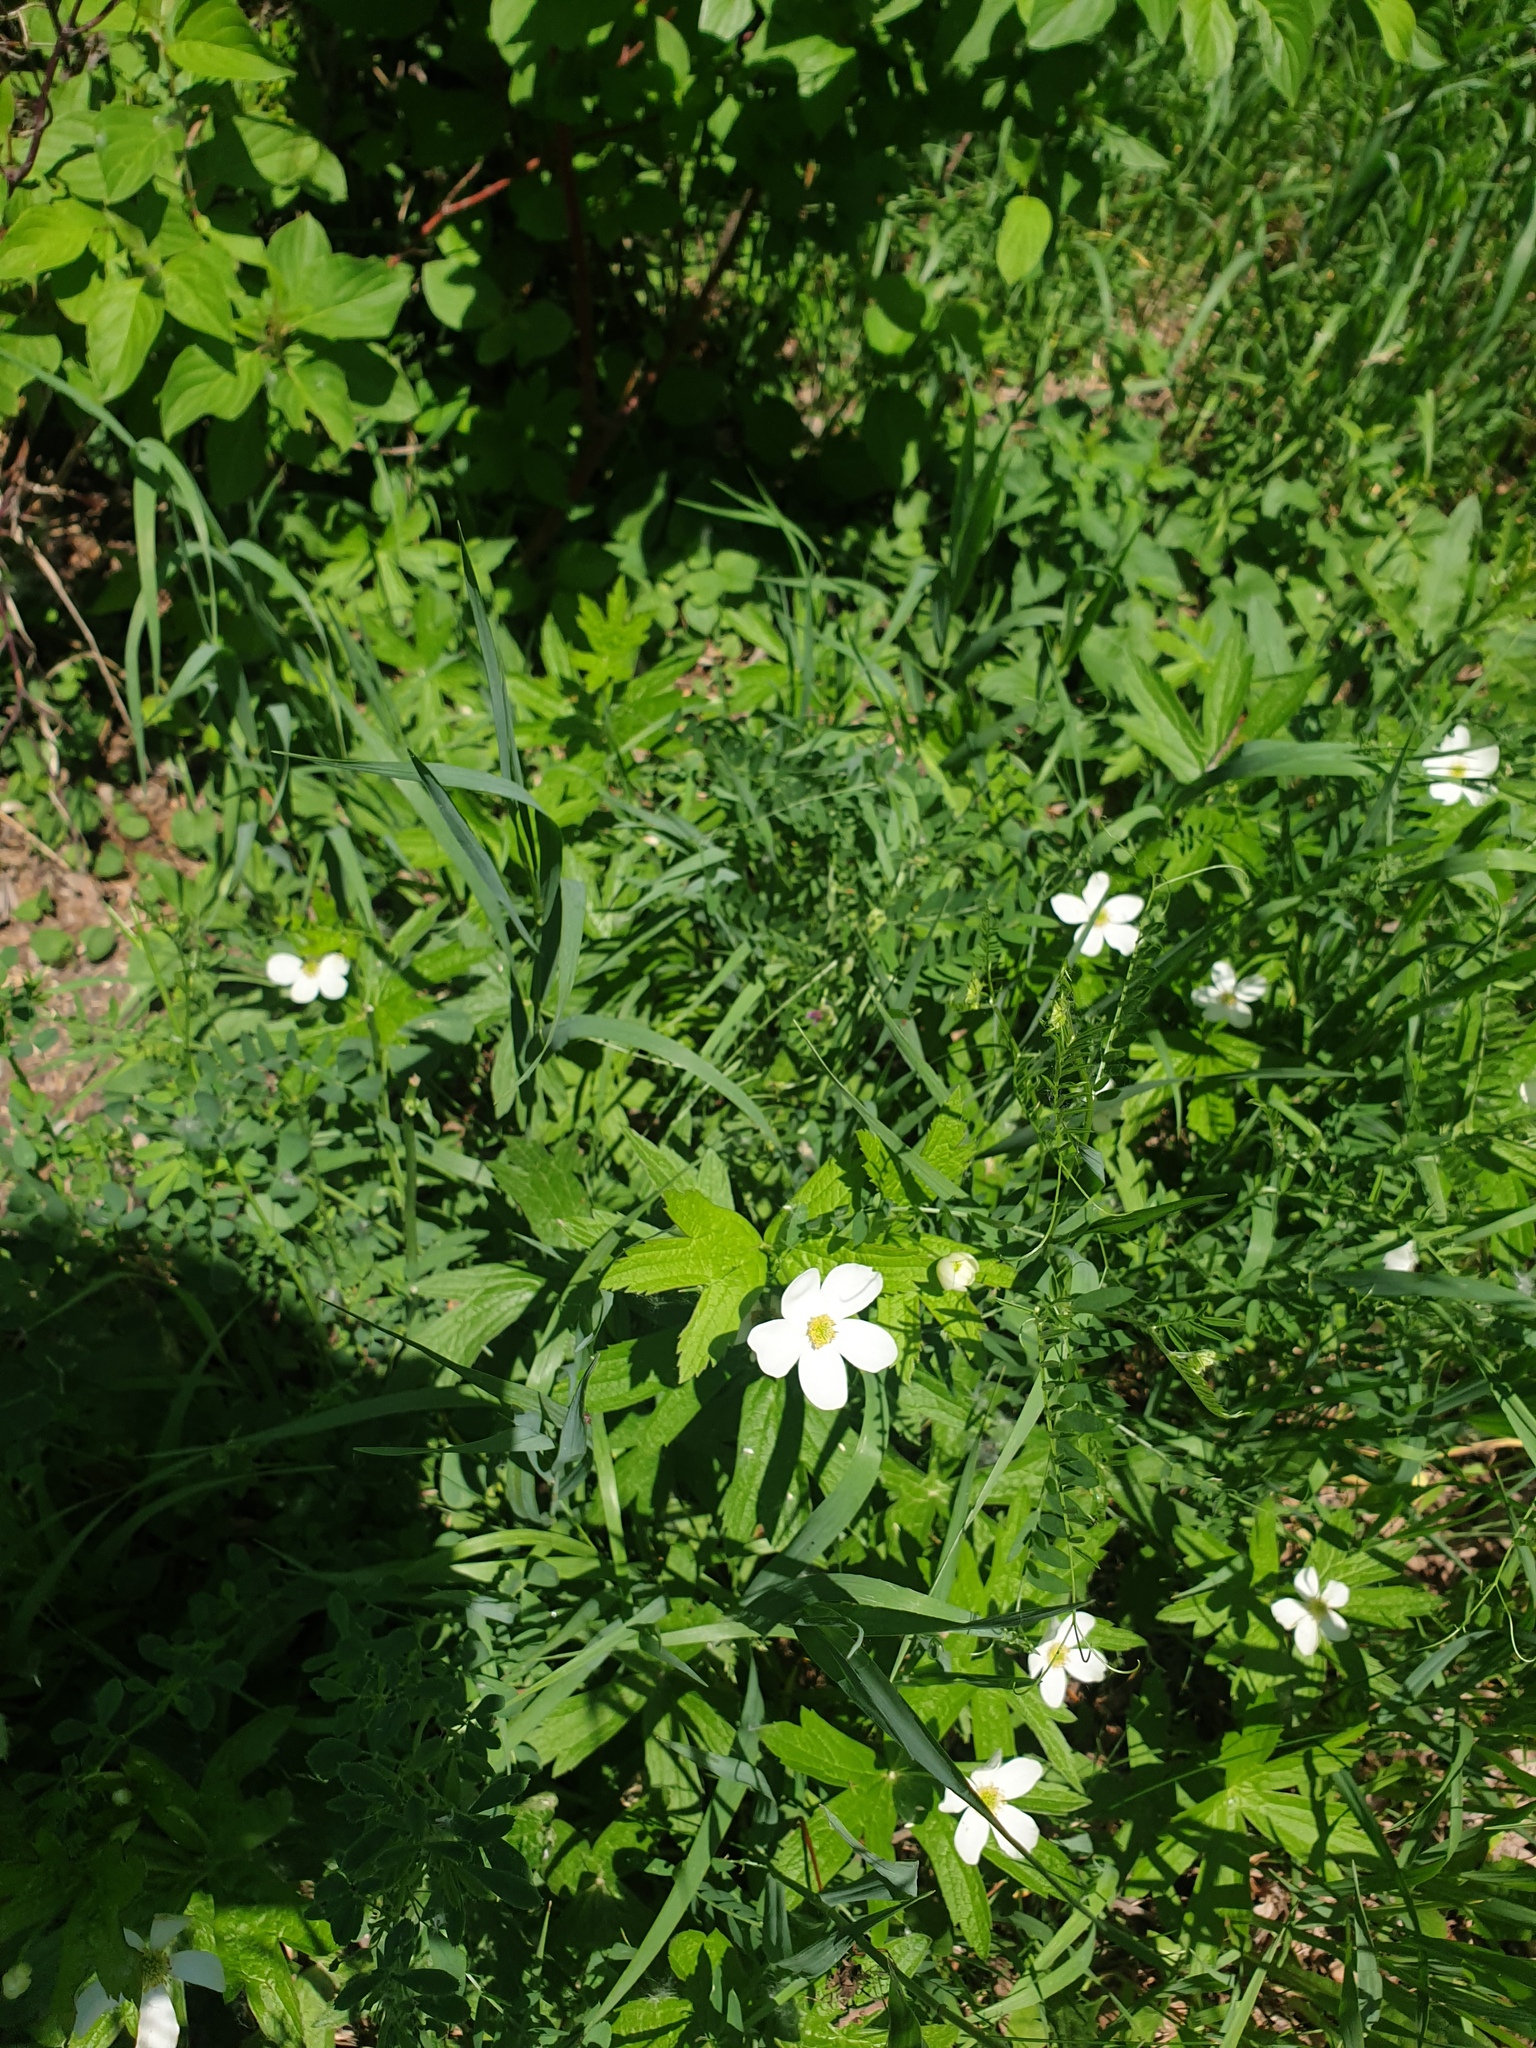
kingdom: Plantae
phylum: Tracheophyta
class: Magnoliopsida
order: Ranunculales
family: Ranunculaceae
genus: Anemonastrum
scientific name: Anemonastrum canadense
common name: Canada anemone
